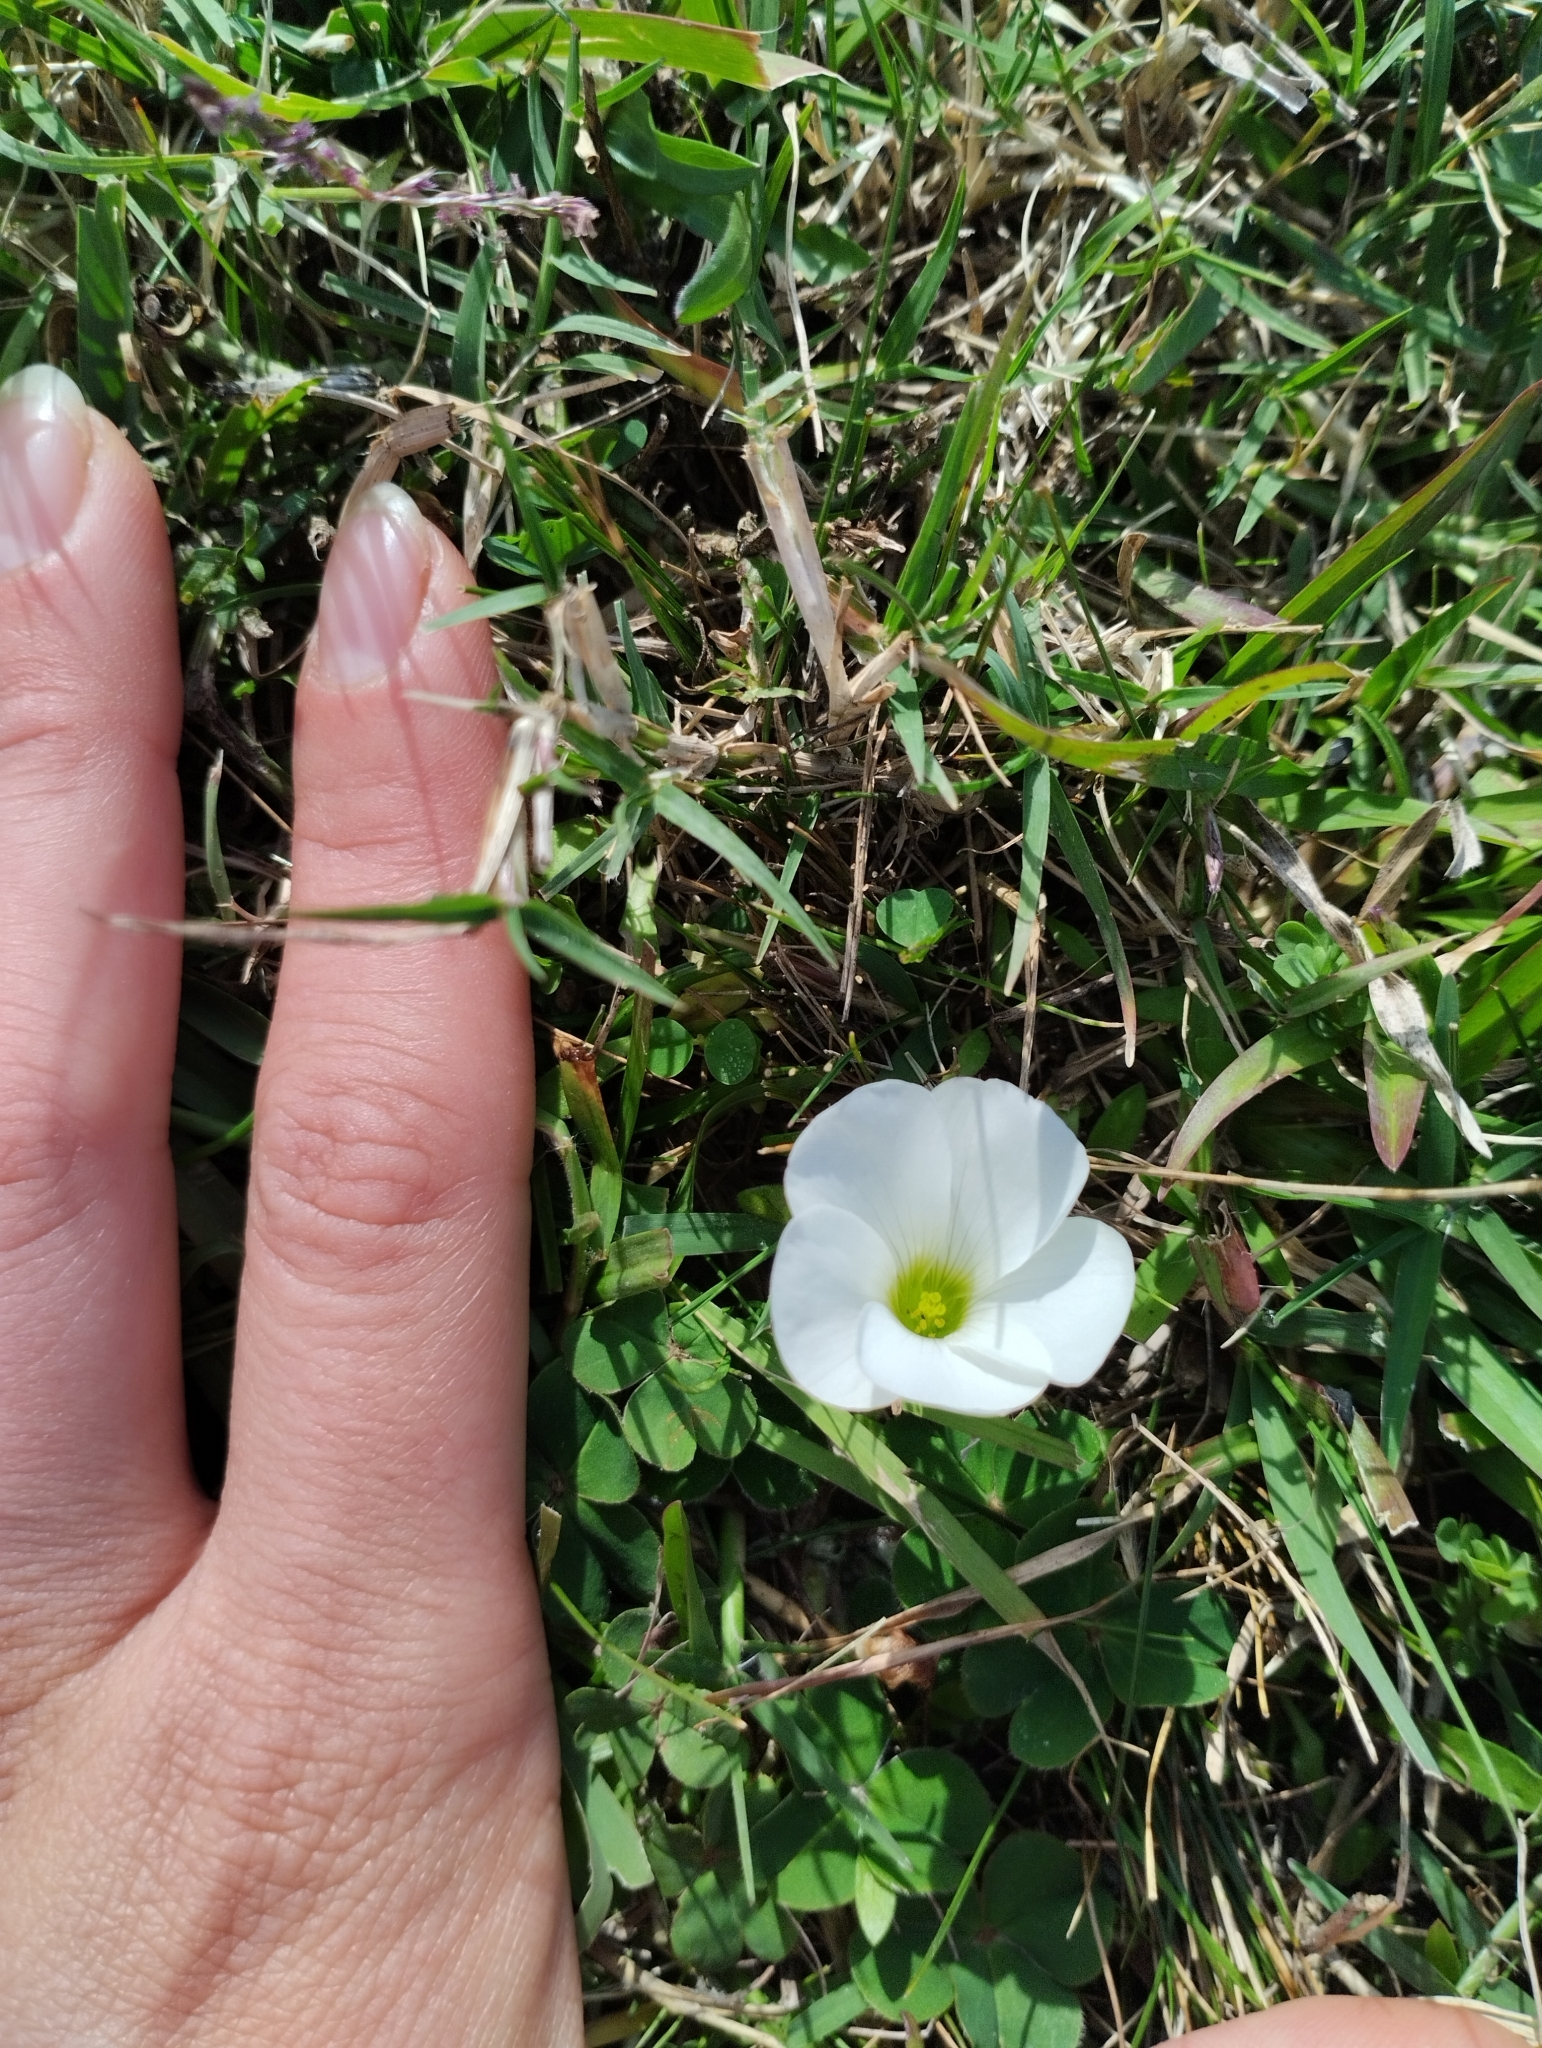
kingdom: Plantae
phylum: Tracheophyta
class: Magnoliopsida
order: Oxalidales
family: Oxalidaceae
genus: Oxalis
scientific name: Oxalis sellowiana
